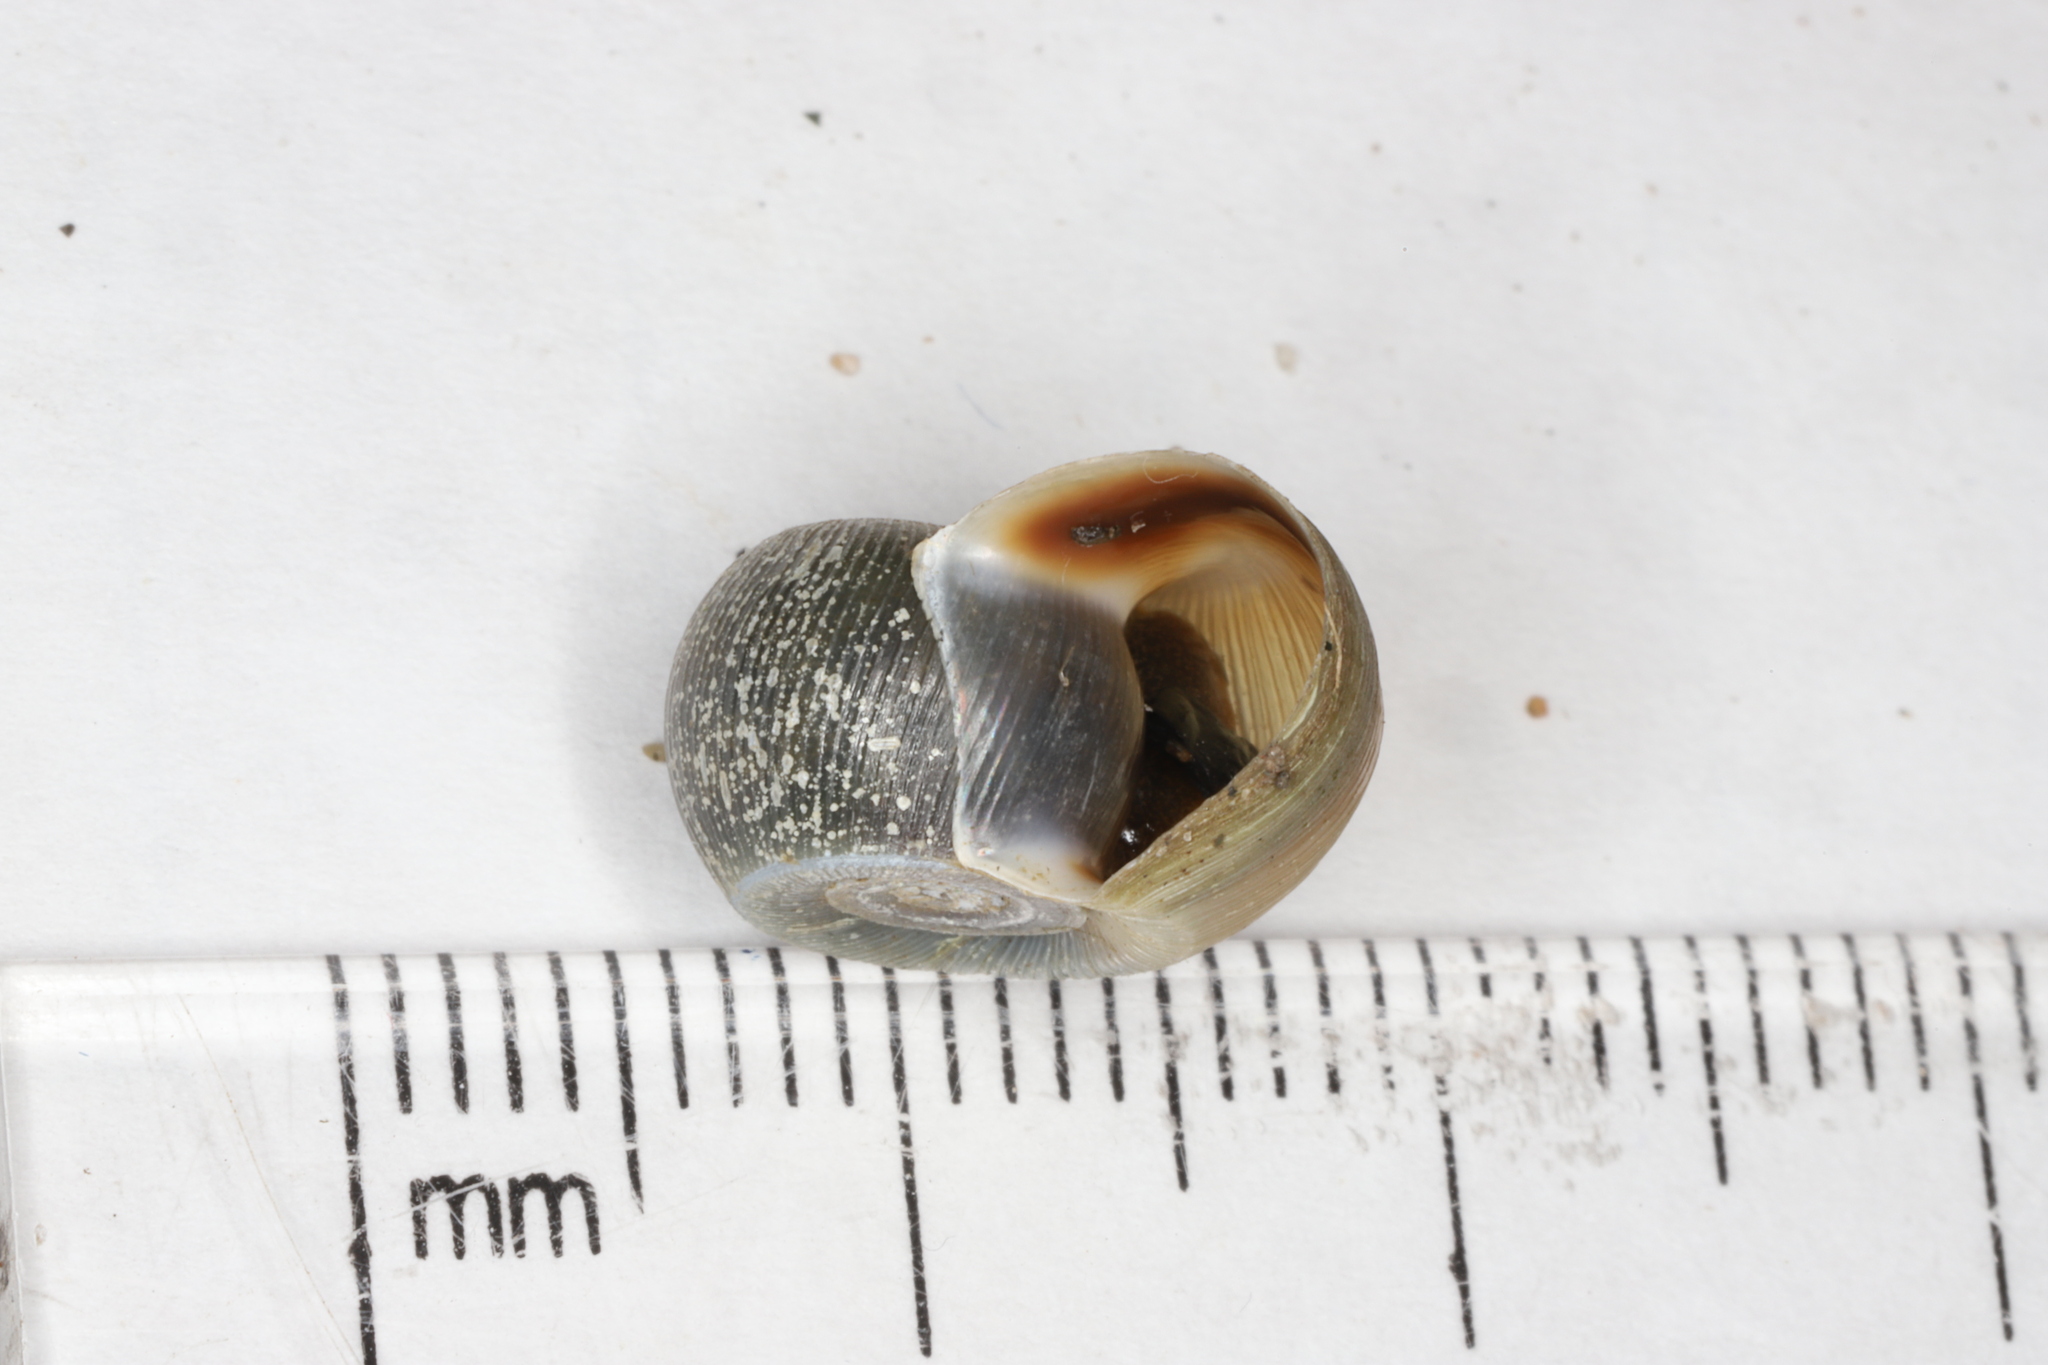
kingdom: Animalia
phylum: Mollusca
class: Gastropoda
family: Planorbidae
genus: Planorbella
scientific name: Planorbella trivolvis
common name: Marsh rams-horn
